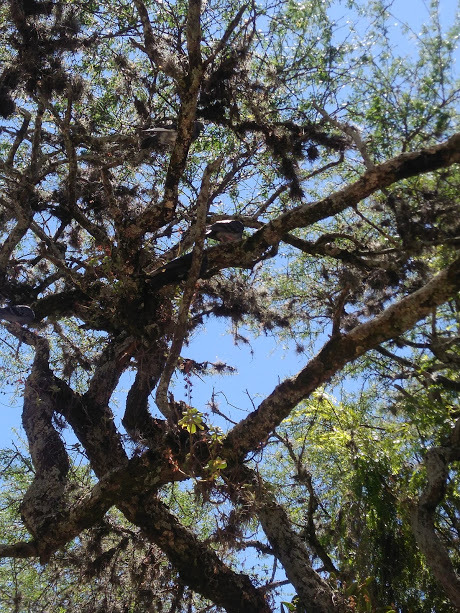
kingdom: Animalia
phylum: Chordata
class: Aves
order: Columbiformes
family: Columbidae
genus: Columba
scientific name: Columba livia
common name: Rock pigeon
